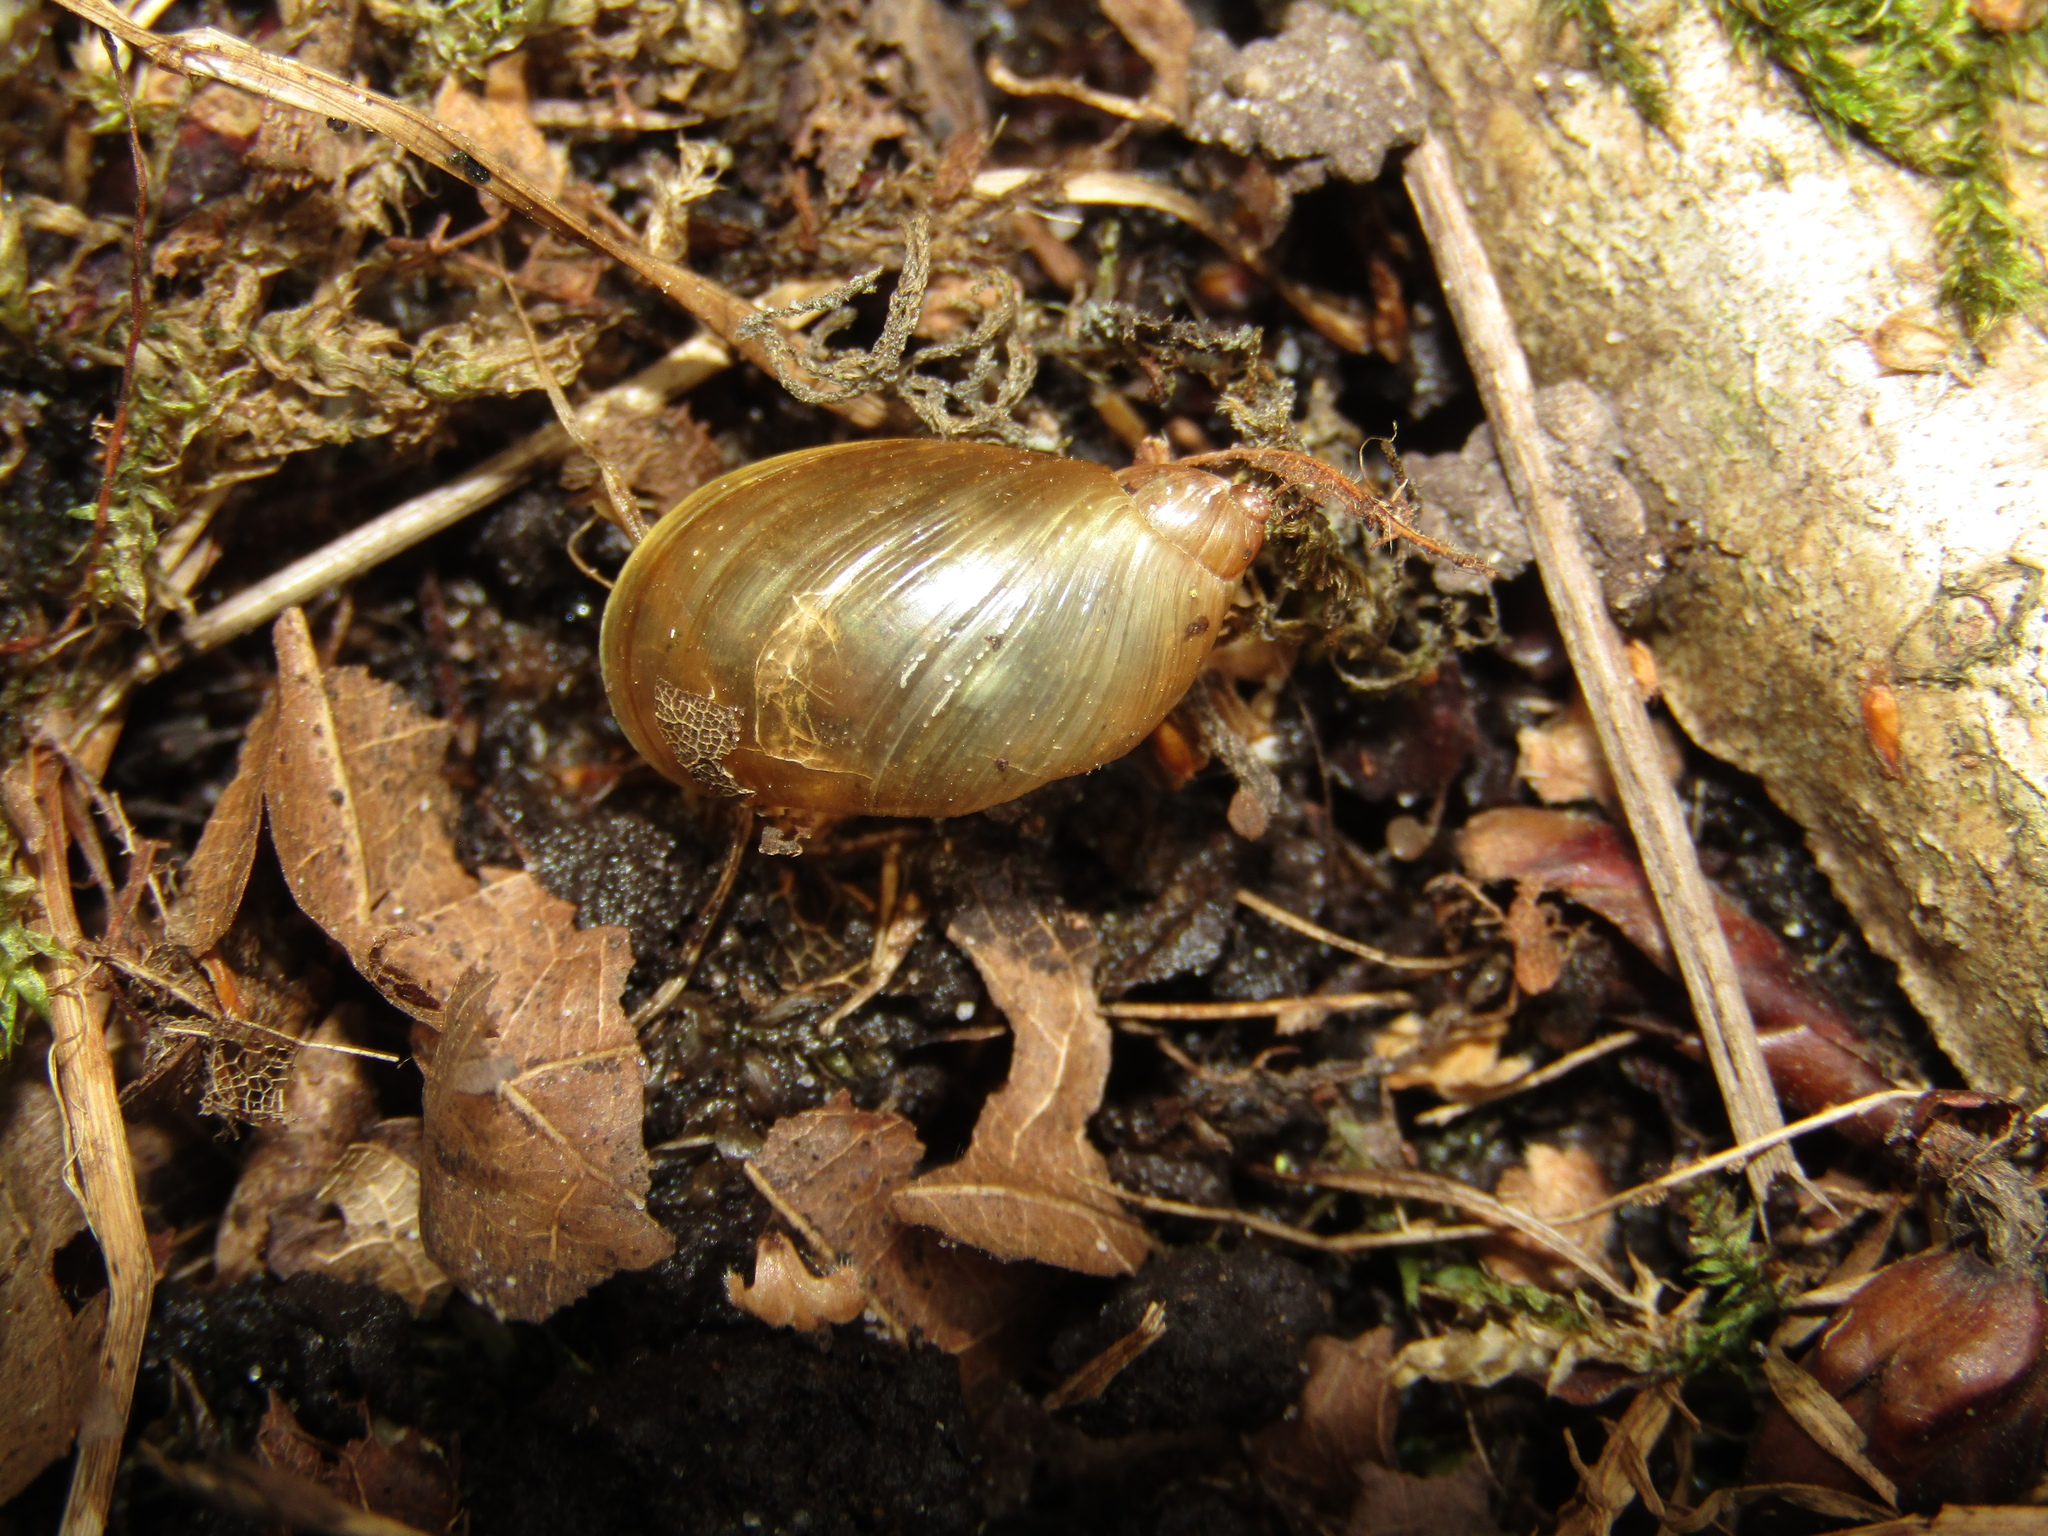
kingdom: Animalia
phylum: Mollusca
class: Gastropoda
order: Stylommatophora
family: Succineidae
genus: Succinea
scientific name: Succinea putris
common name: European ambersnail
